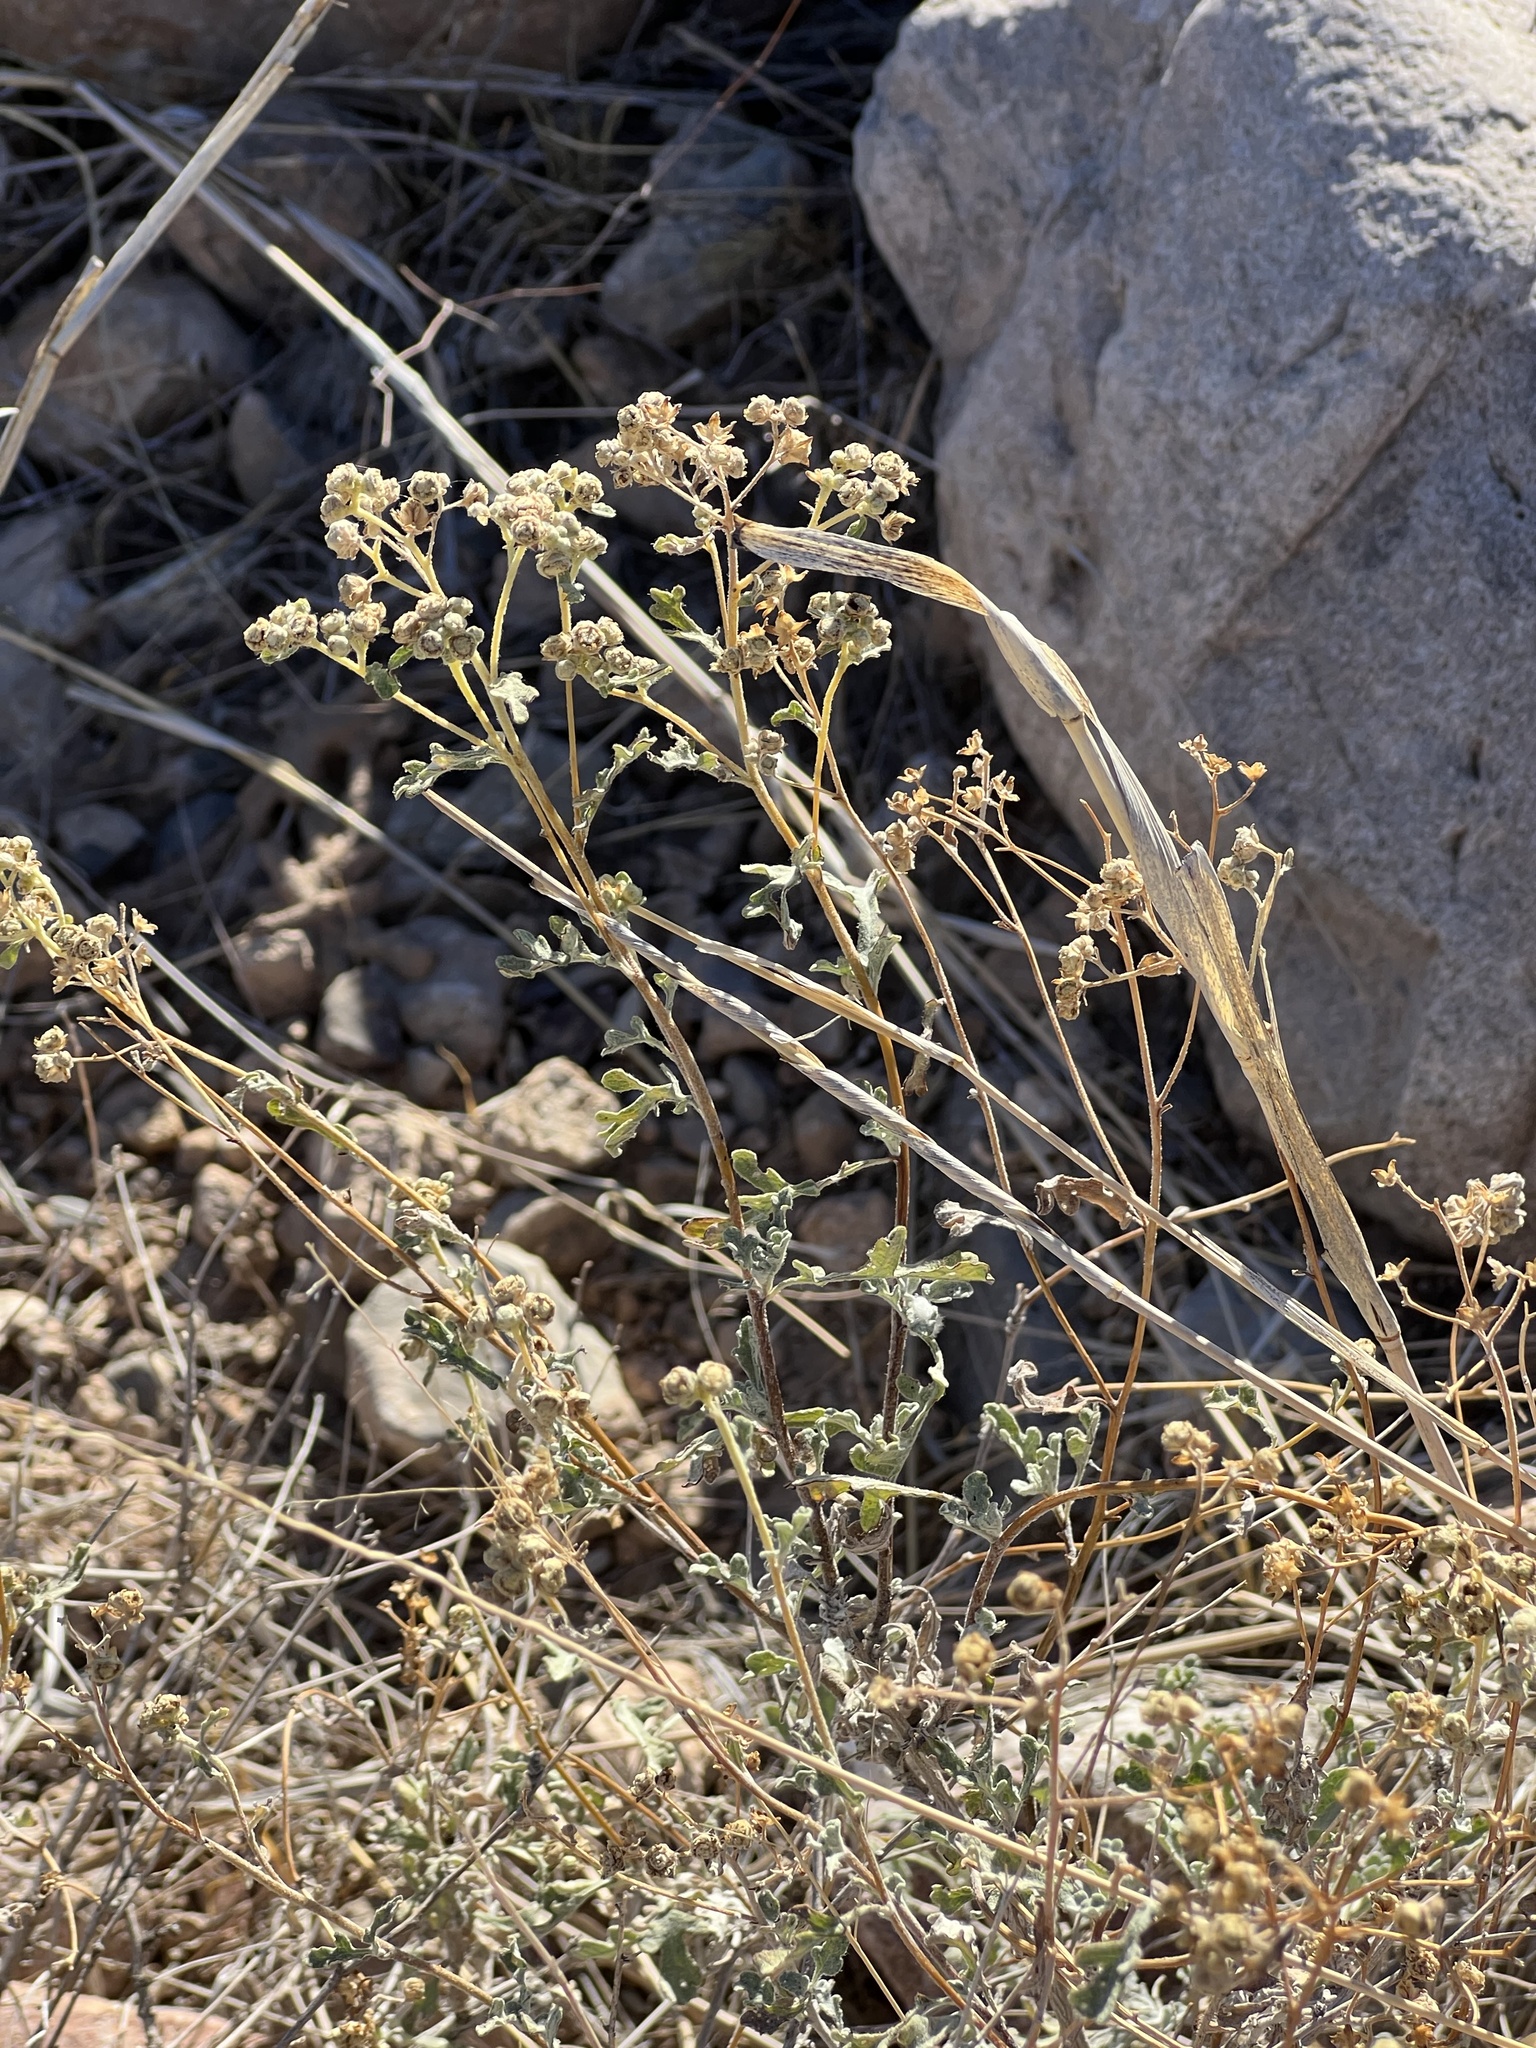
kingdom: Plantae
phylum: Tracheophyta
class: Magnoliopsida
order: Asterales
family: Asteraceae
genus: Parthenium
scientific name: Parthenium incanum
